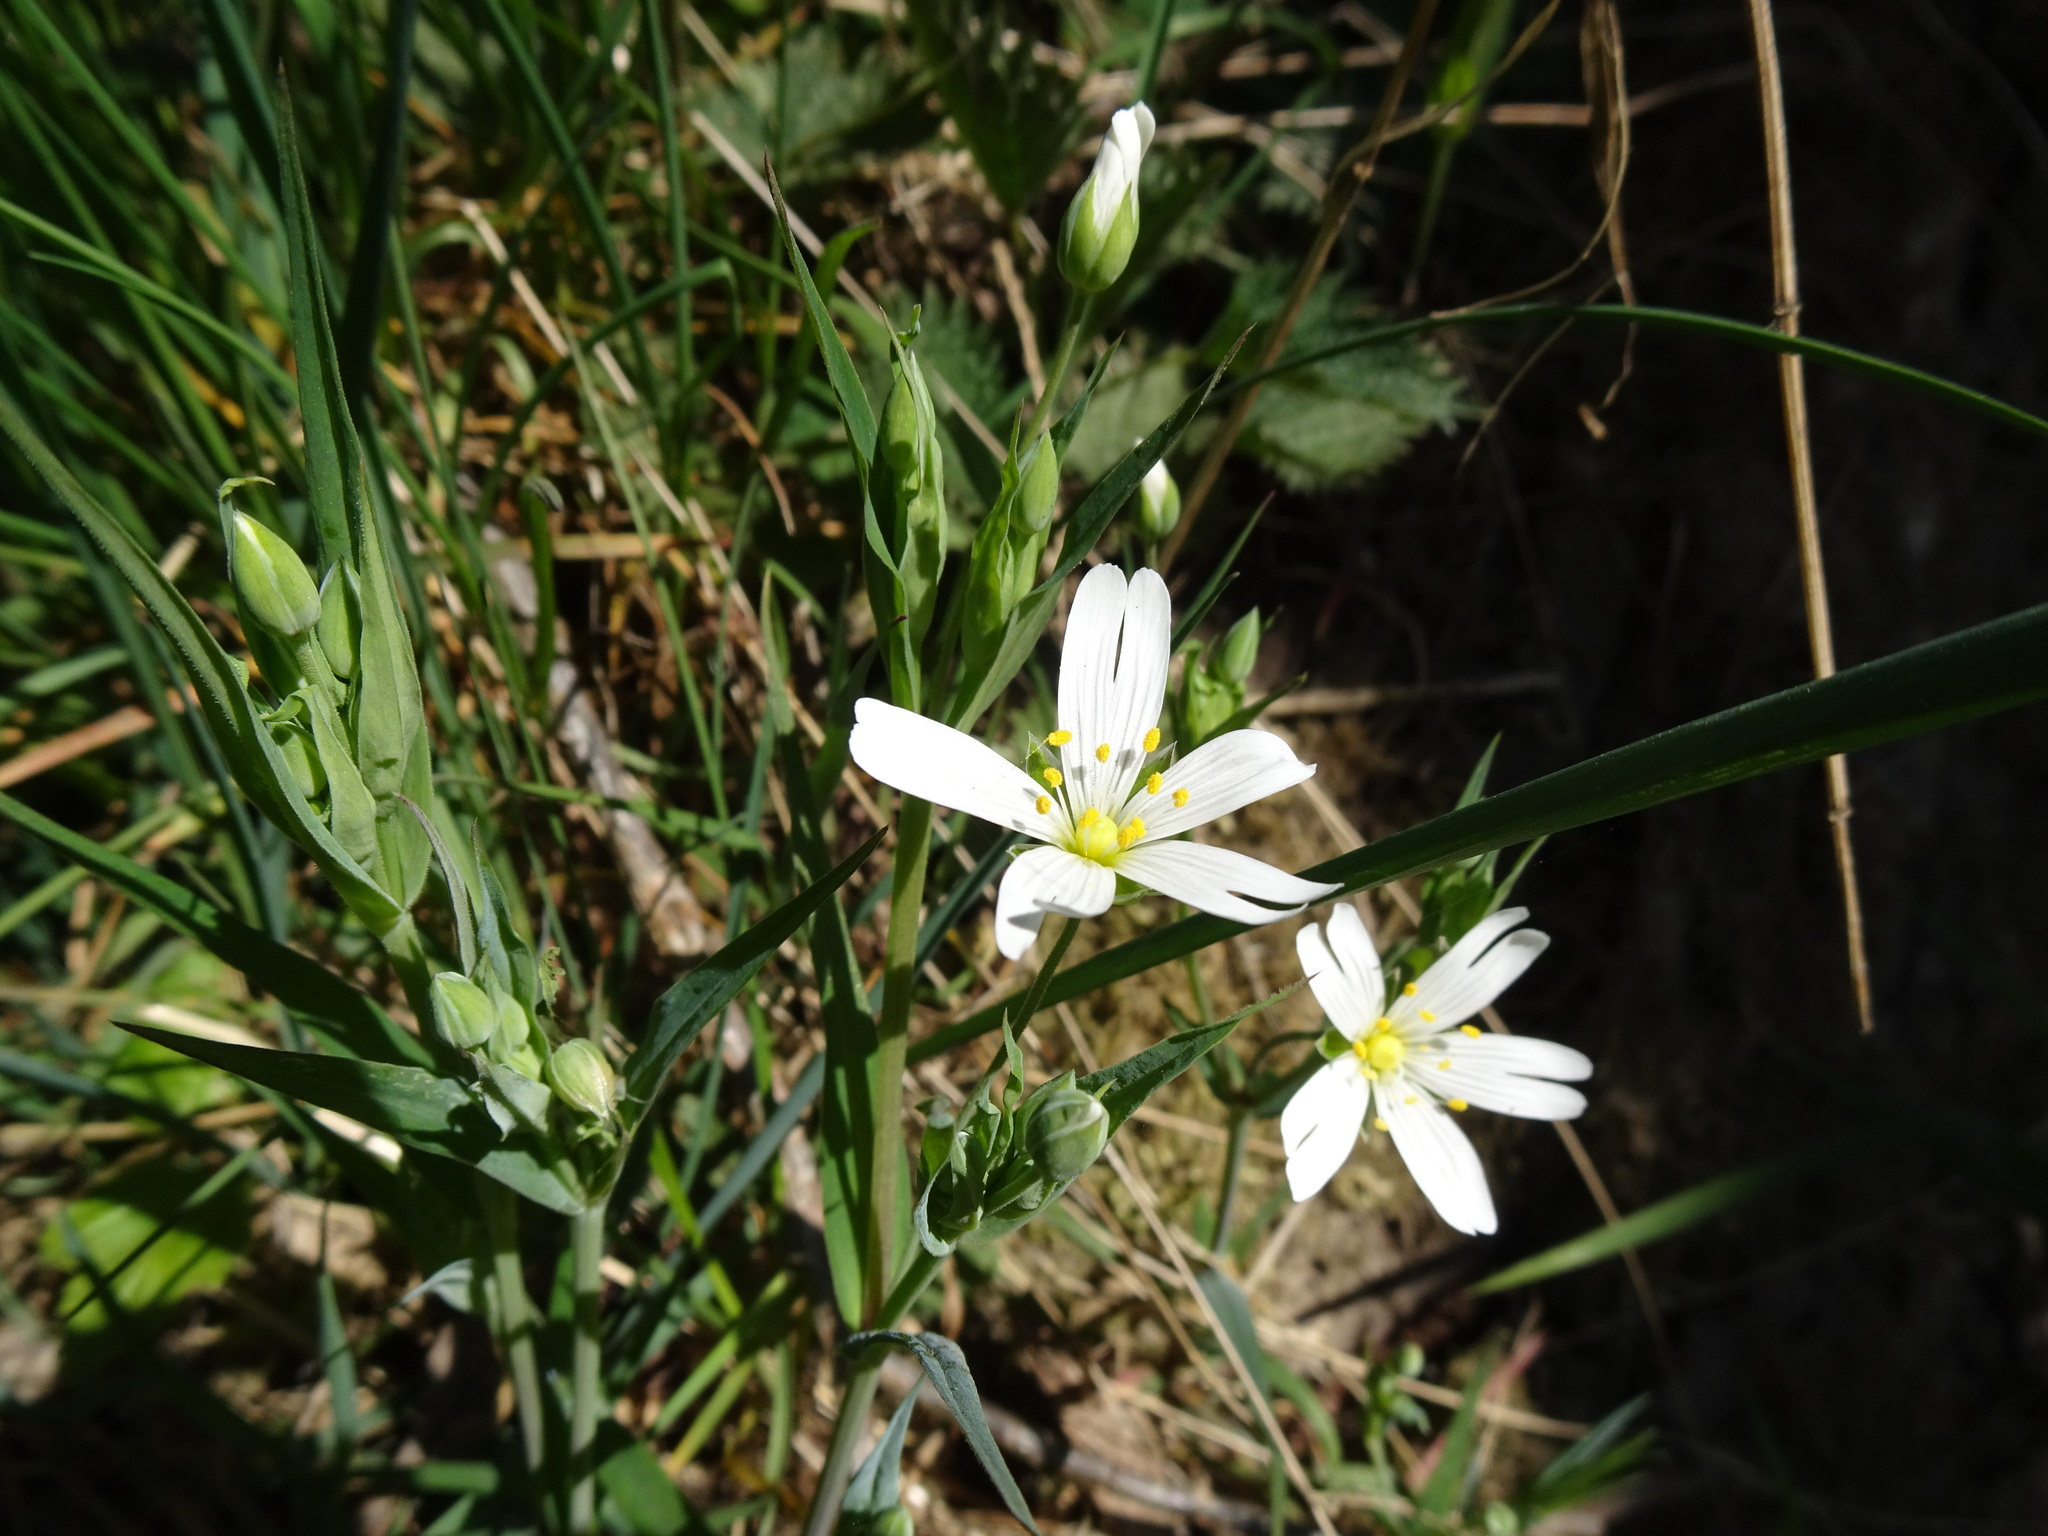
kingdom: Plantae
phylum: Tracheophyta
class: Magnoliopsida
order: Caryophyllales
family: Caryophyllaceae
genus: Rabelera
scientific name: Rabelera holostea
